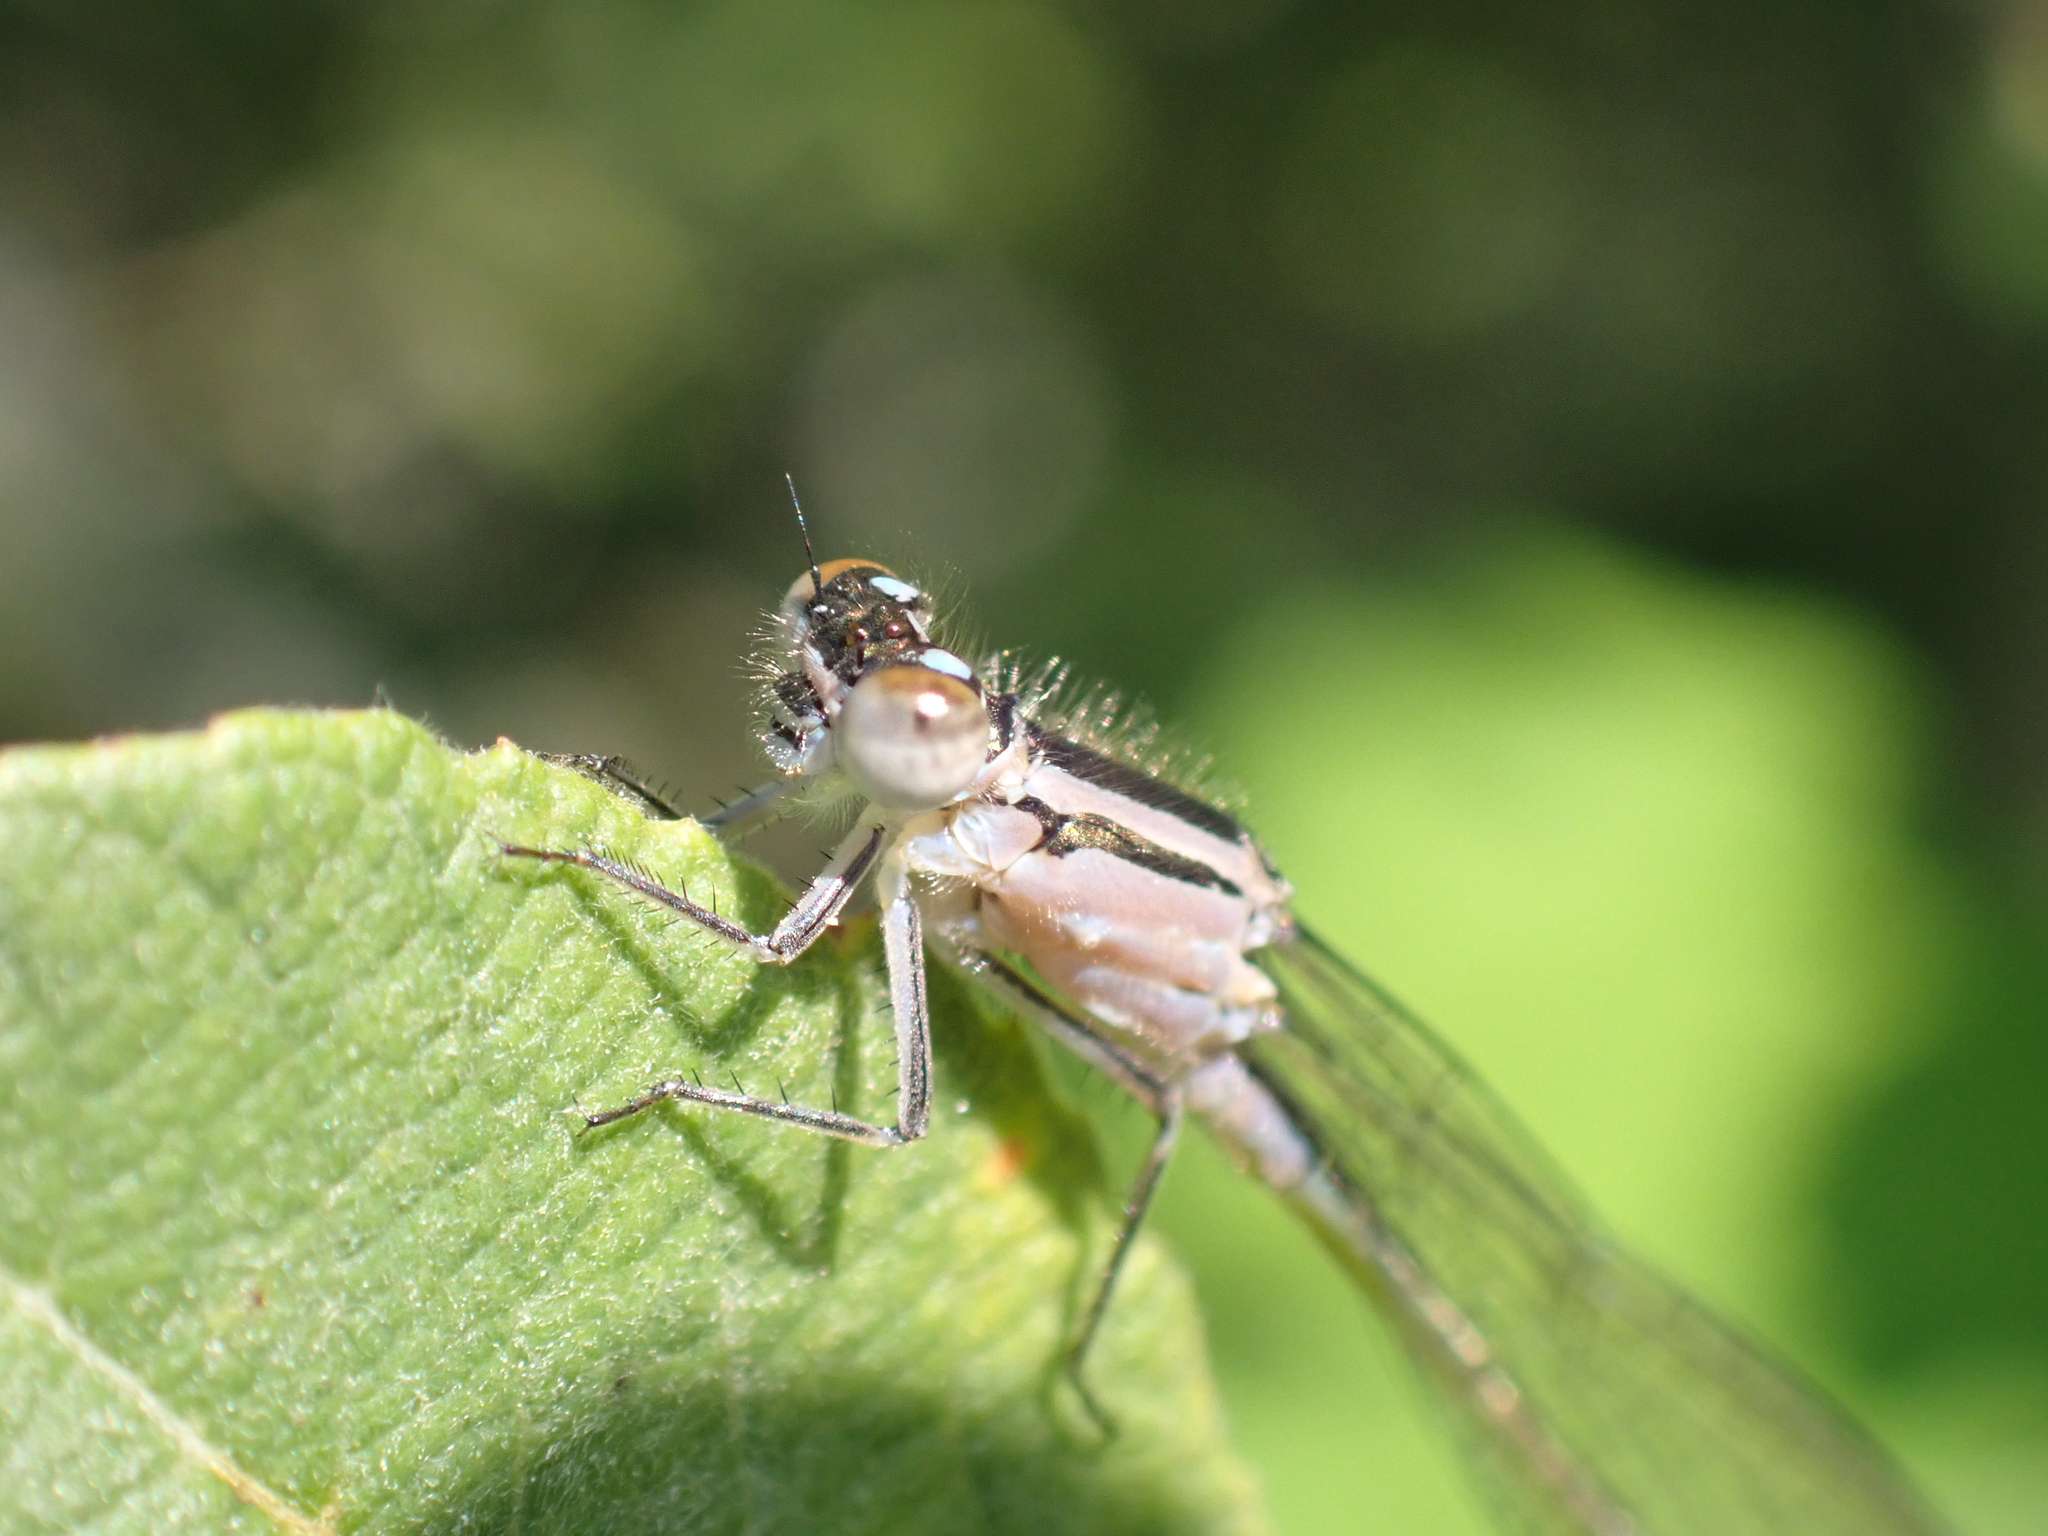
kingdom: Animalia
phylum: Arthropoda
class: Insecta
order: Odonata
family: Coenagrionidae
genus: Ischnura
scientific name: Ischnura elegans
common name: Blue-tailed damselfly
